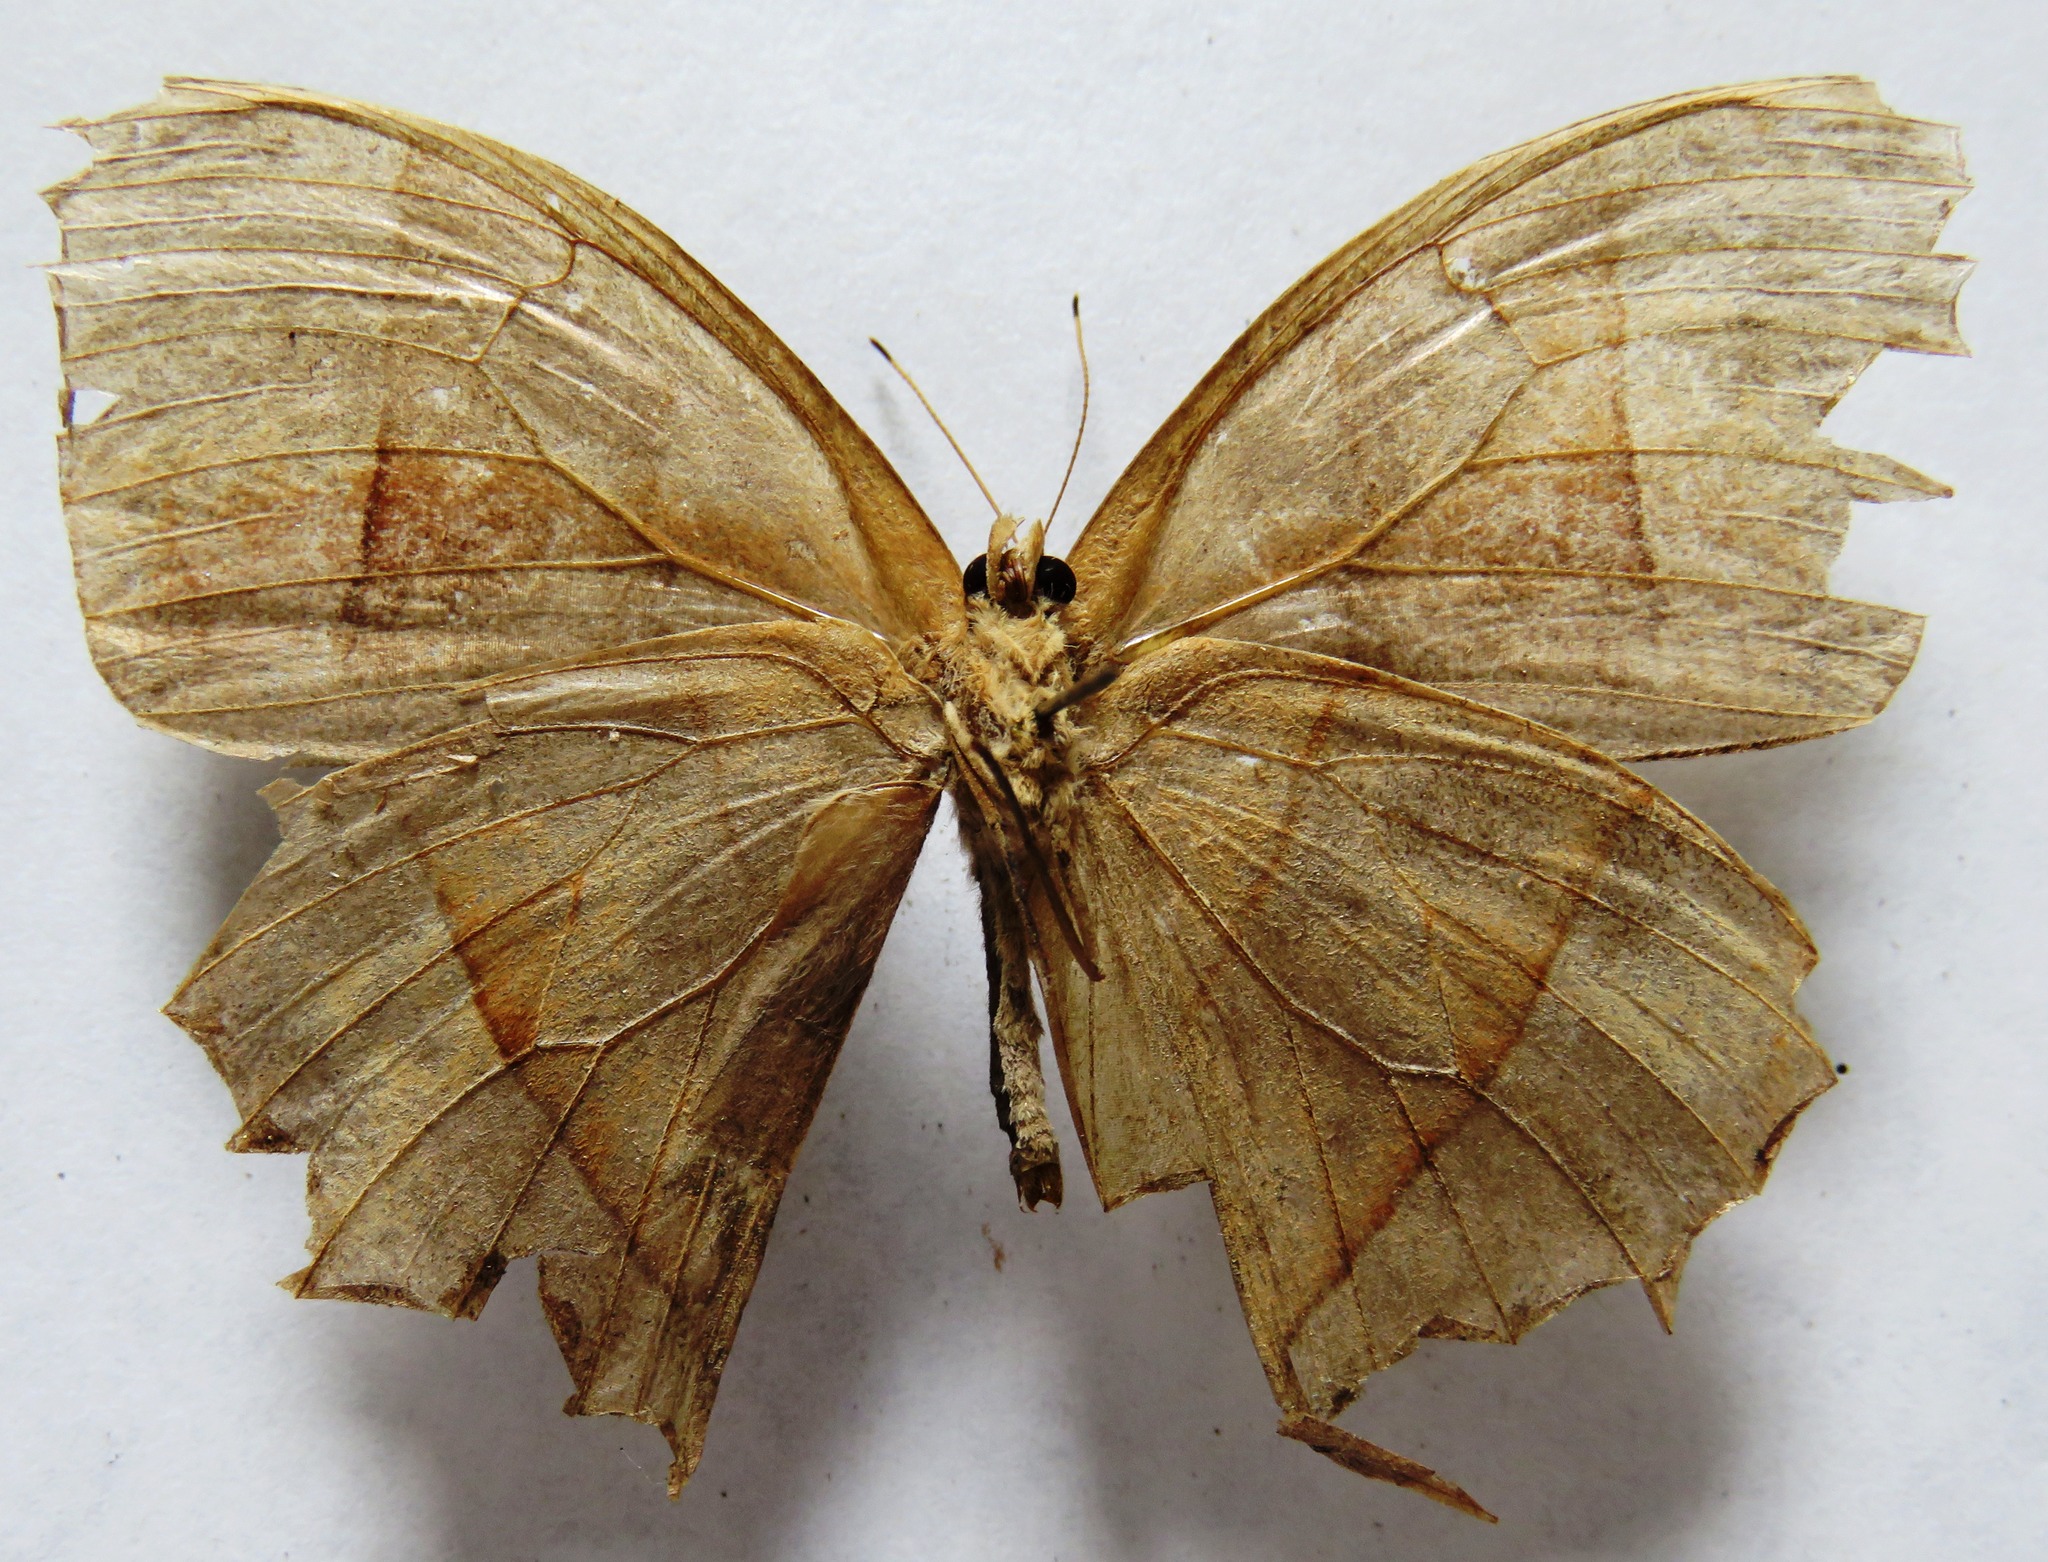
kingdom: Animalia
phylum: Arthropoda
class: Insecta
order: Lepidoptera
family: Nymphalidae
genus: Taygetis
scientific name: Taygetis virgilia
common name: Stub-tailed satyr
